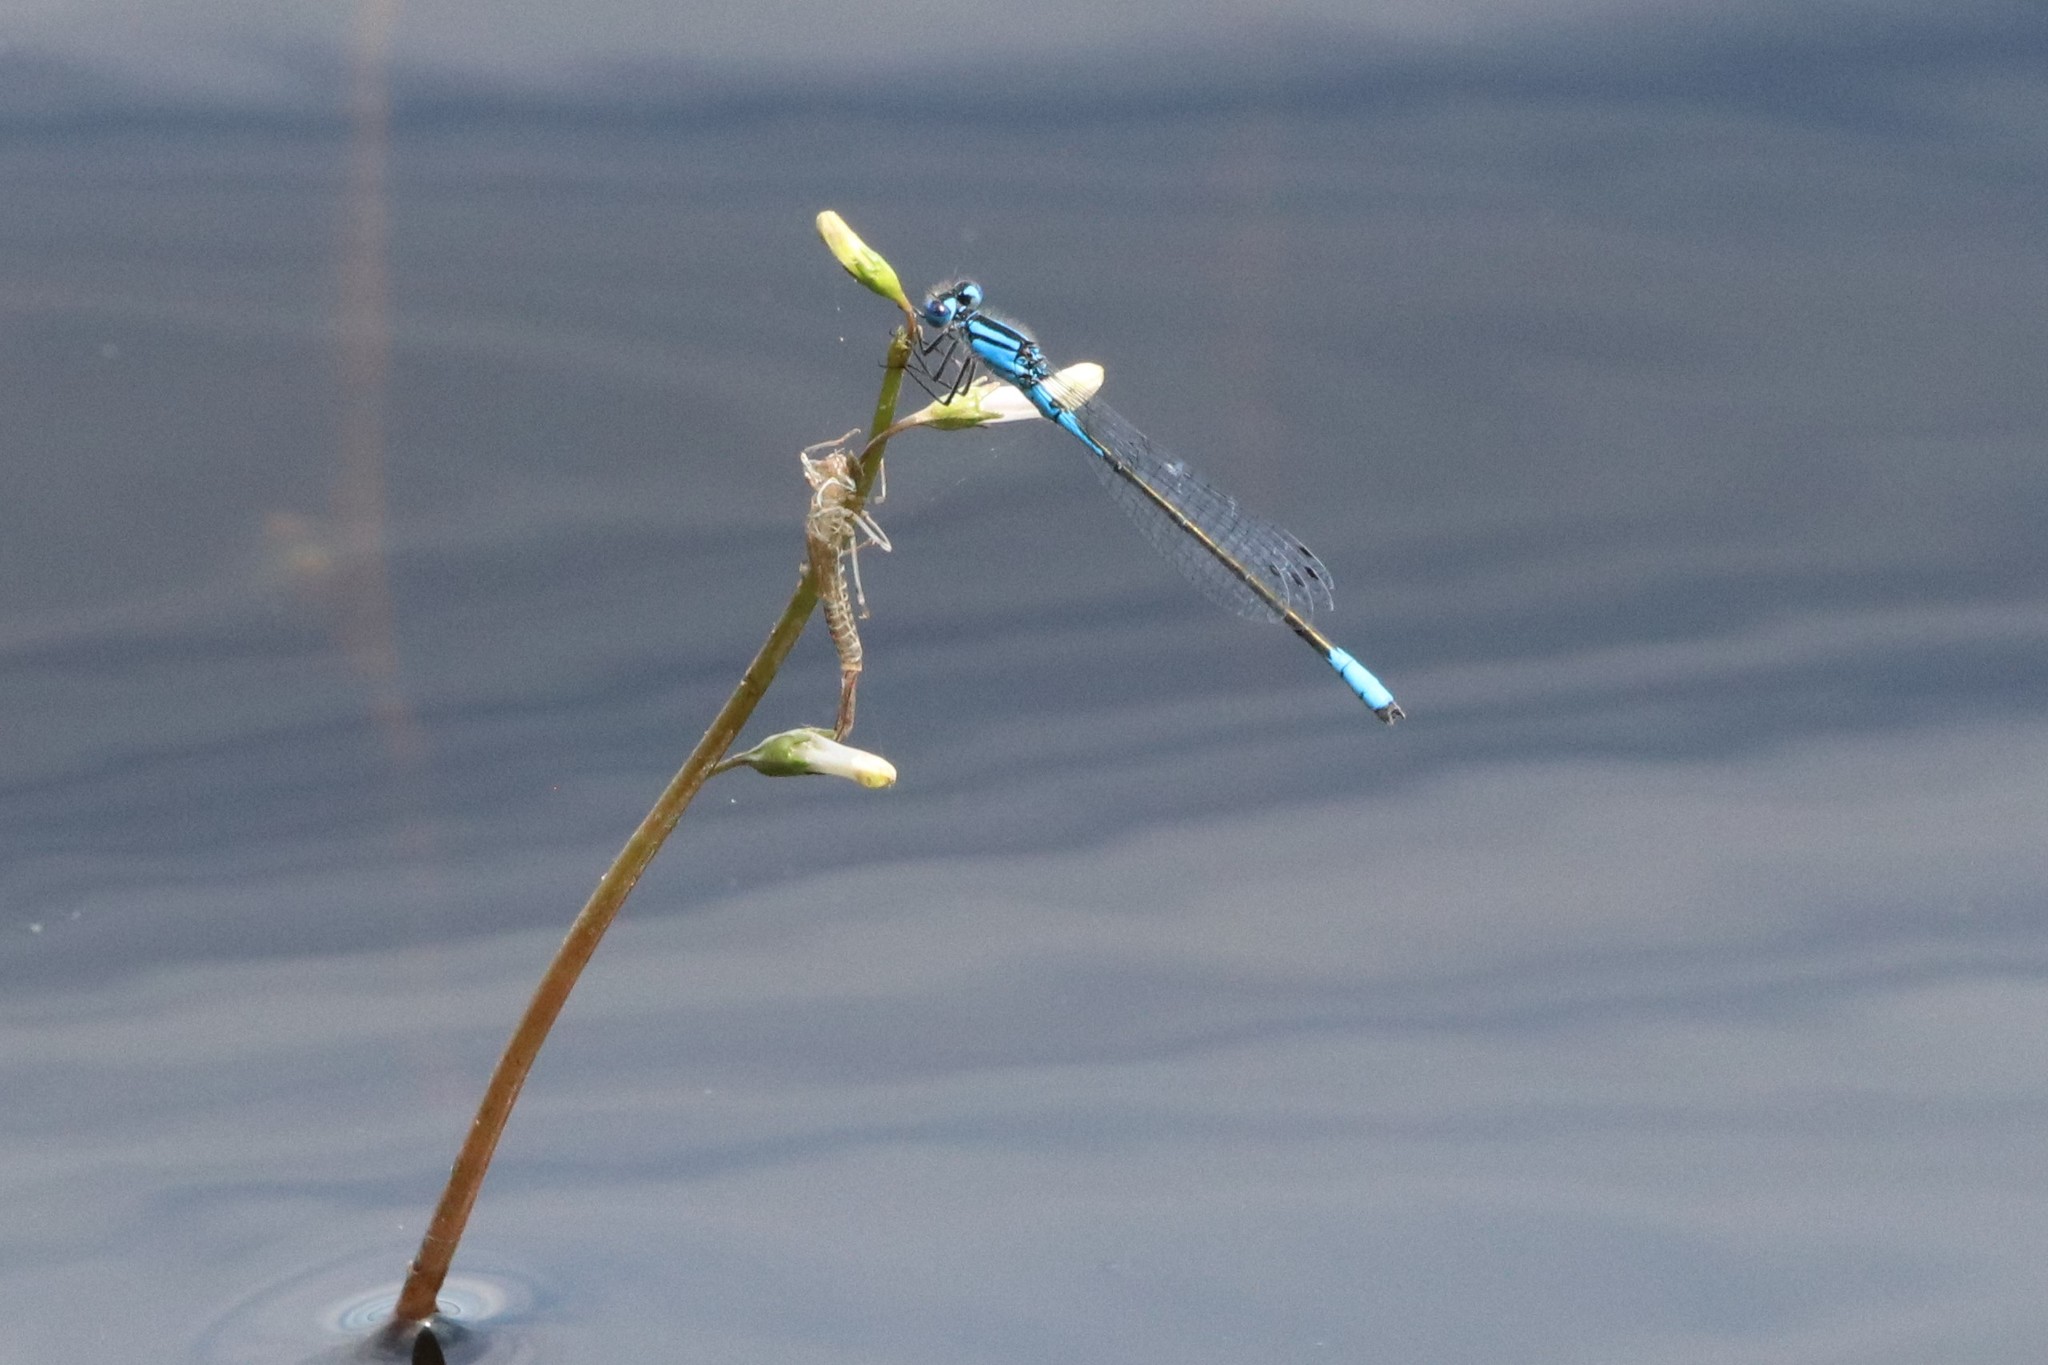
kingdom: Animalia
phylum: Arthropoda
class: Insecta
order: Odonata
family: Coenagrionidae
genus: Enallagma
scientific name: Enallagma aspersum
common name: Azure bluet
